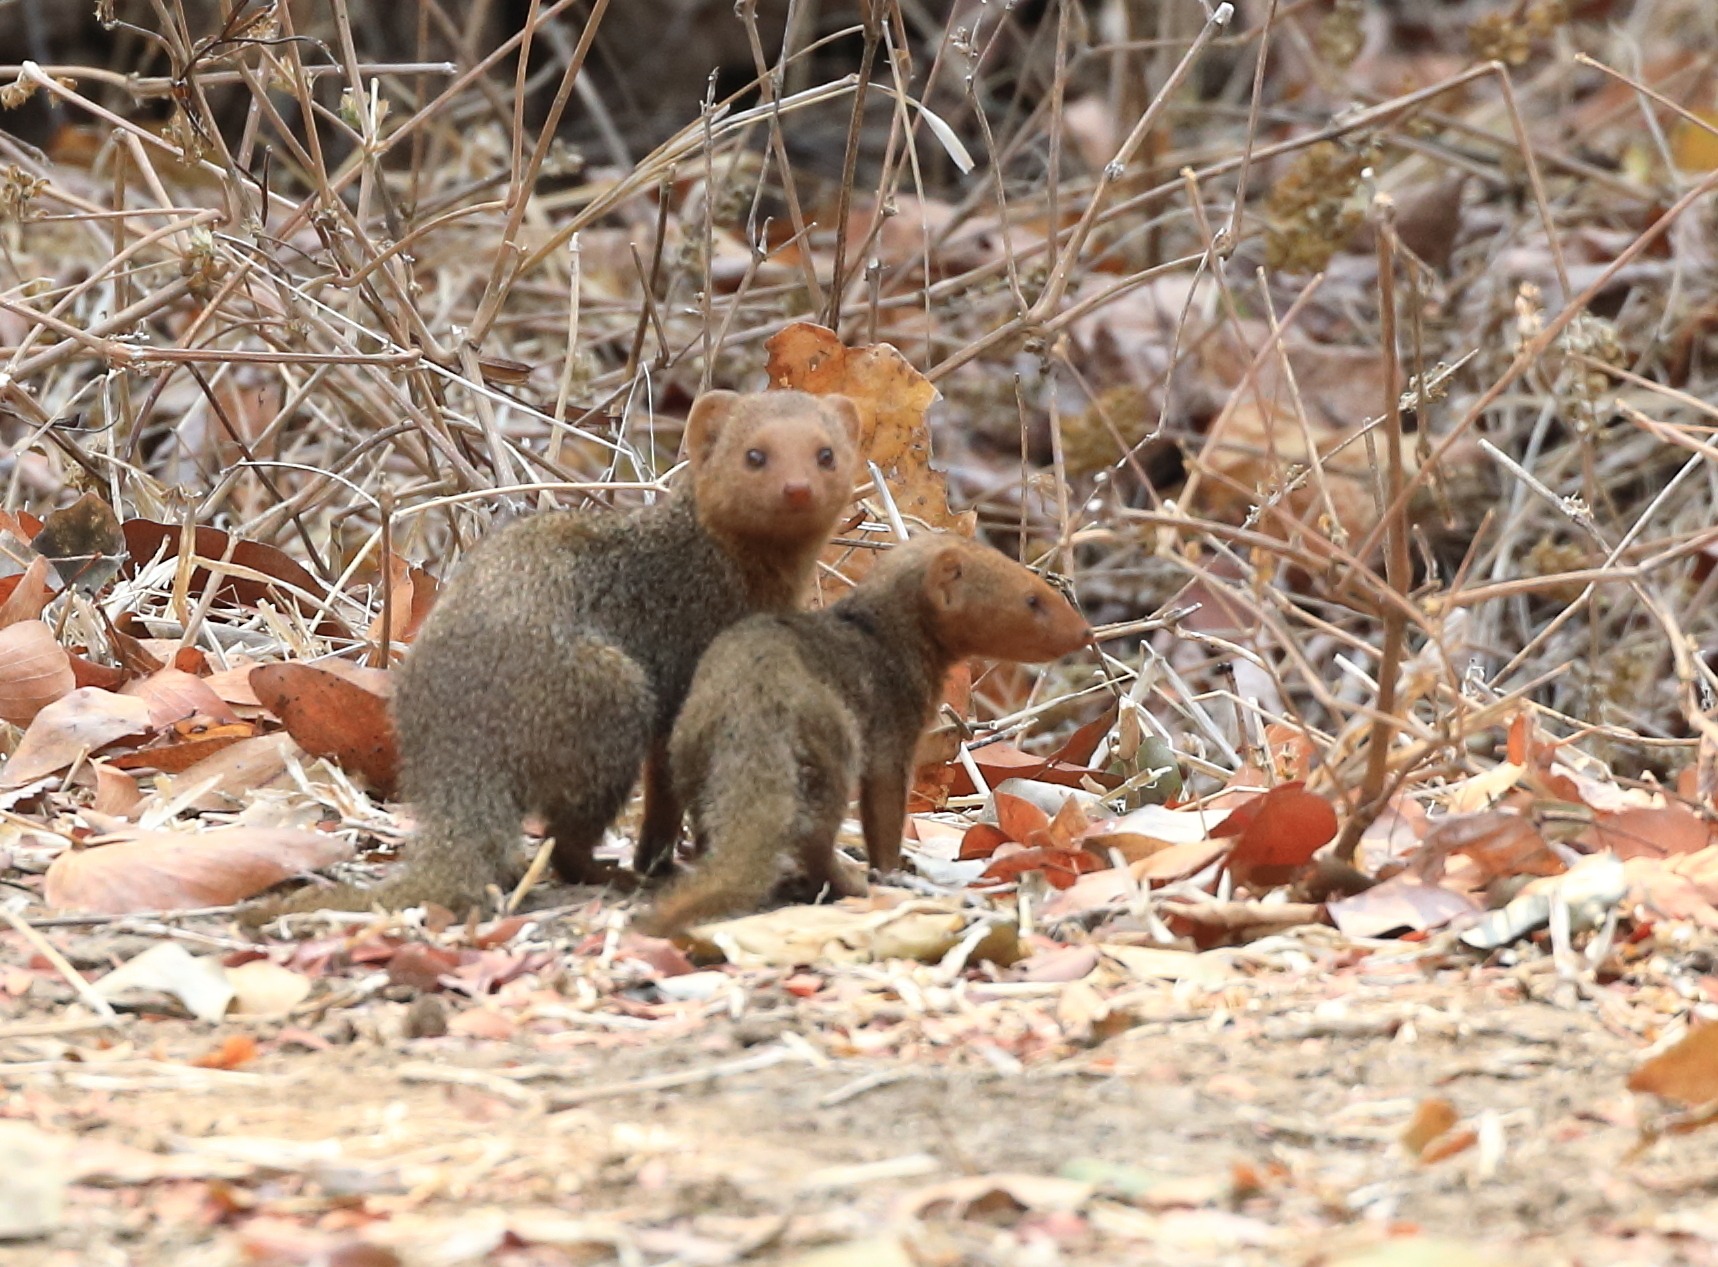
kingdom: Animalia
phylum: Chordata
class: Mammalia
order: Carnivora
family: Herpestidae
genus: Helogale
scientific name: Helogale parvula
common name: Common dwarf mongoose
